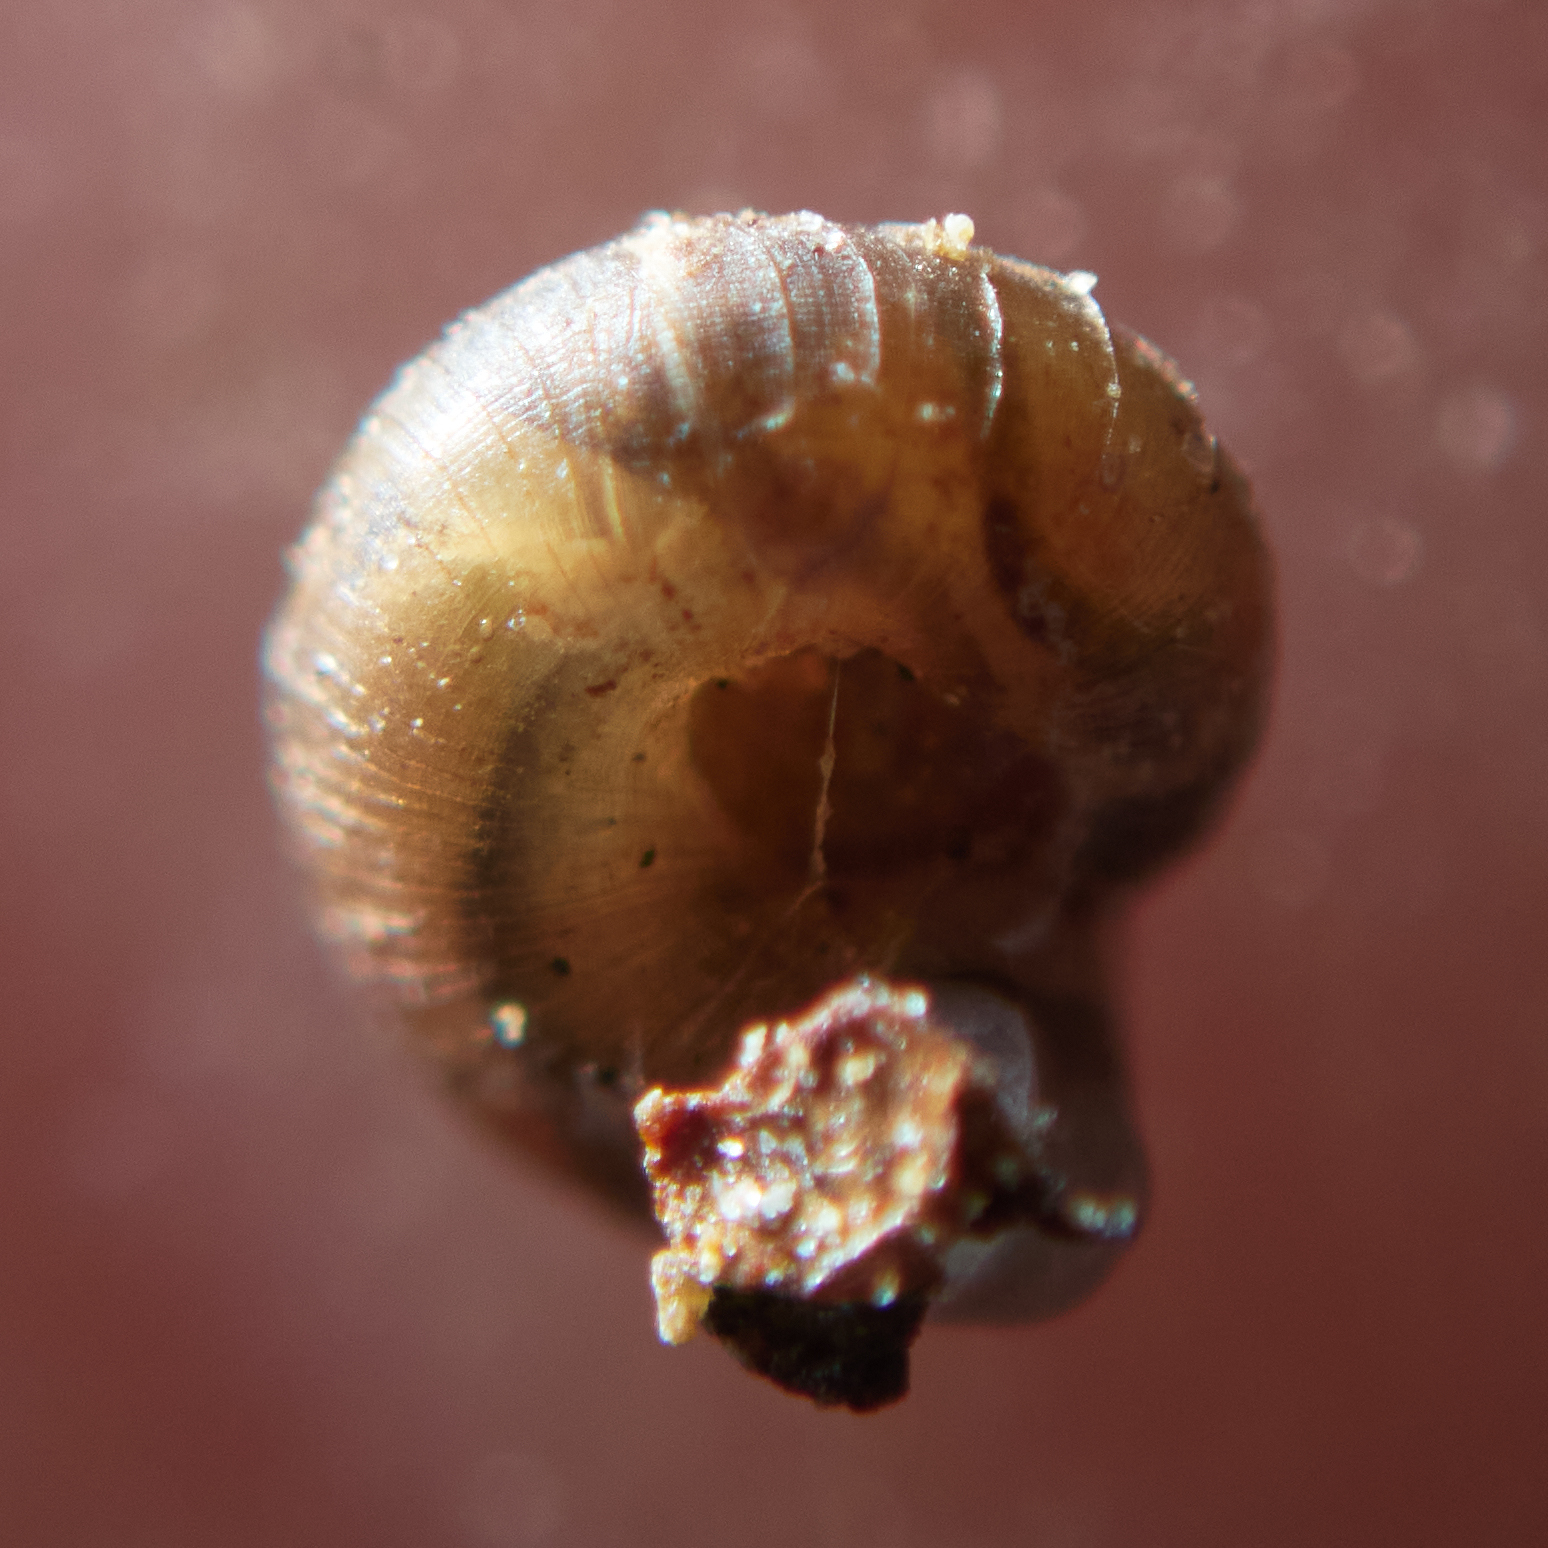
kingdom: Animalia
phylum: Mollusca
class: Gastropoda
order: Stylommatophora
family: Punctidae
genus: Paralaoma
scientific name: Paralaoma servilis
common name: Pinhead spot
